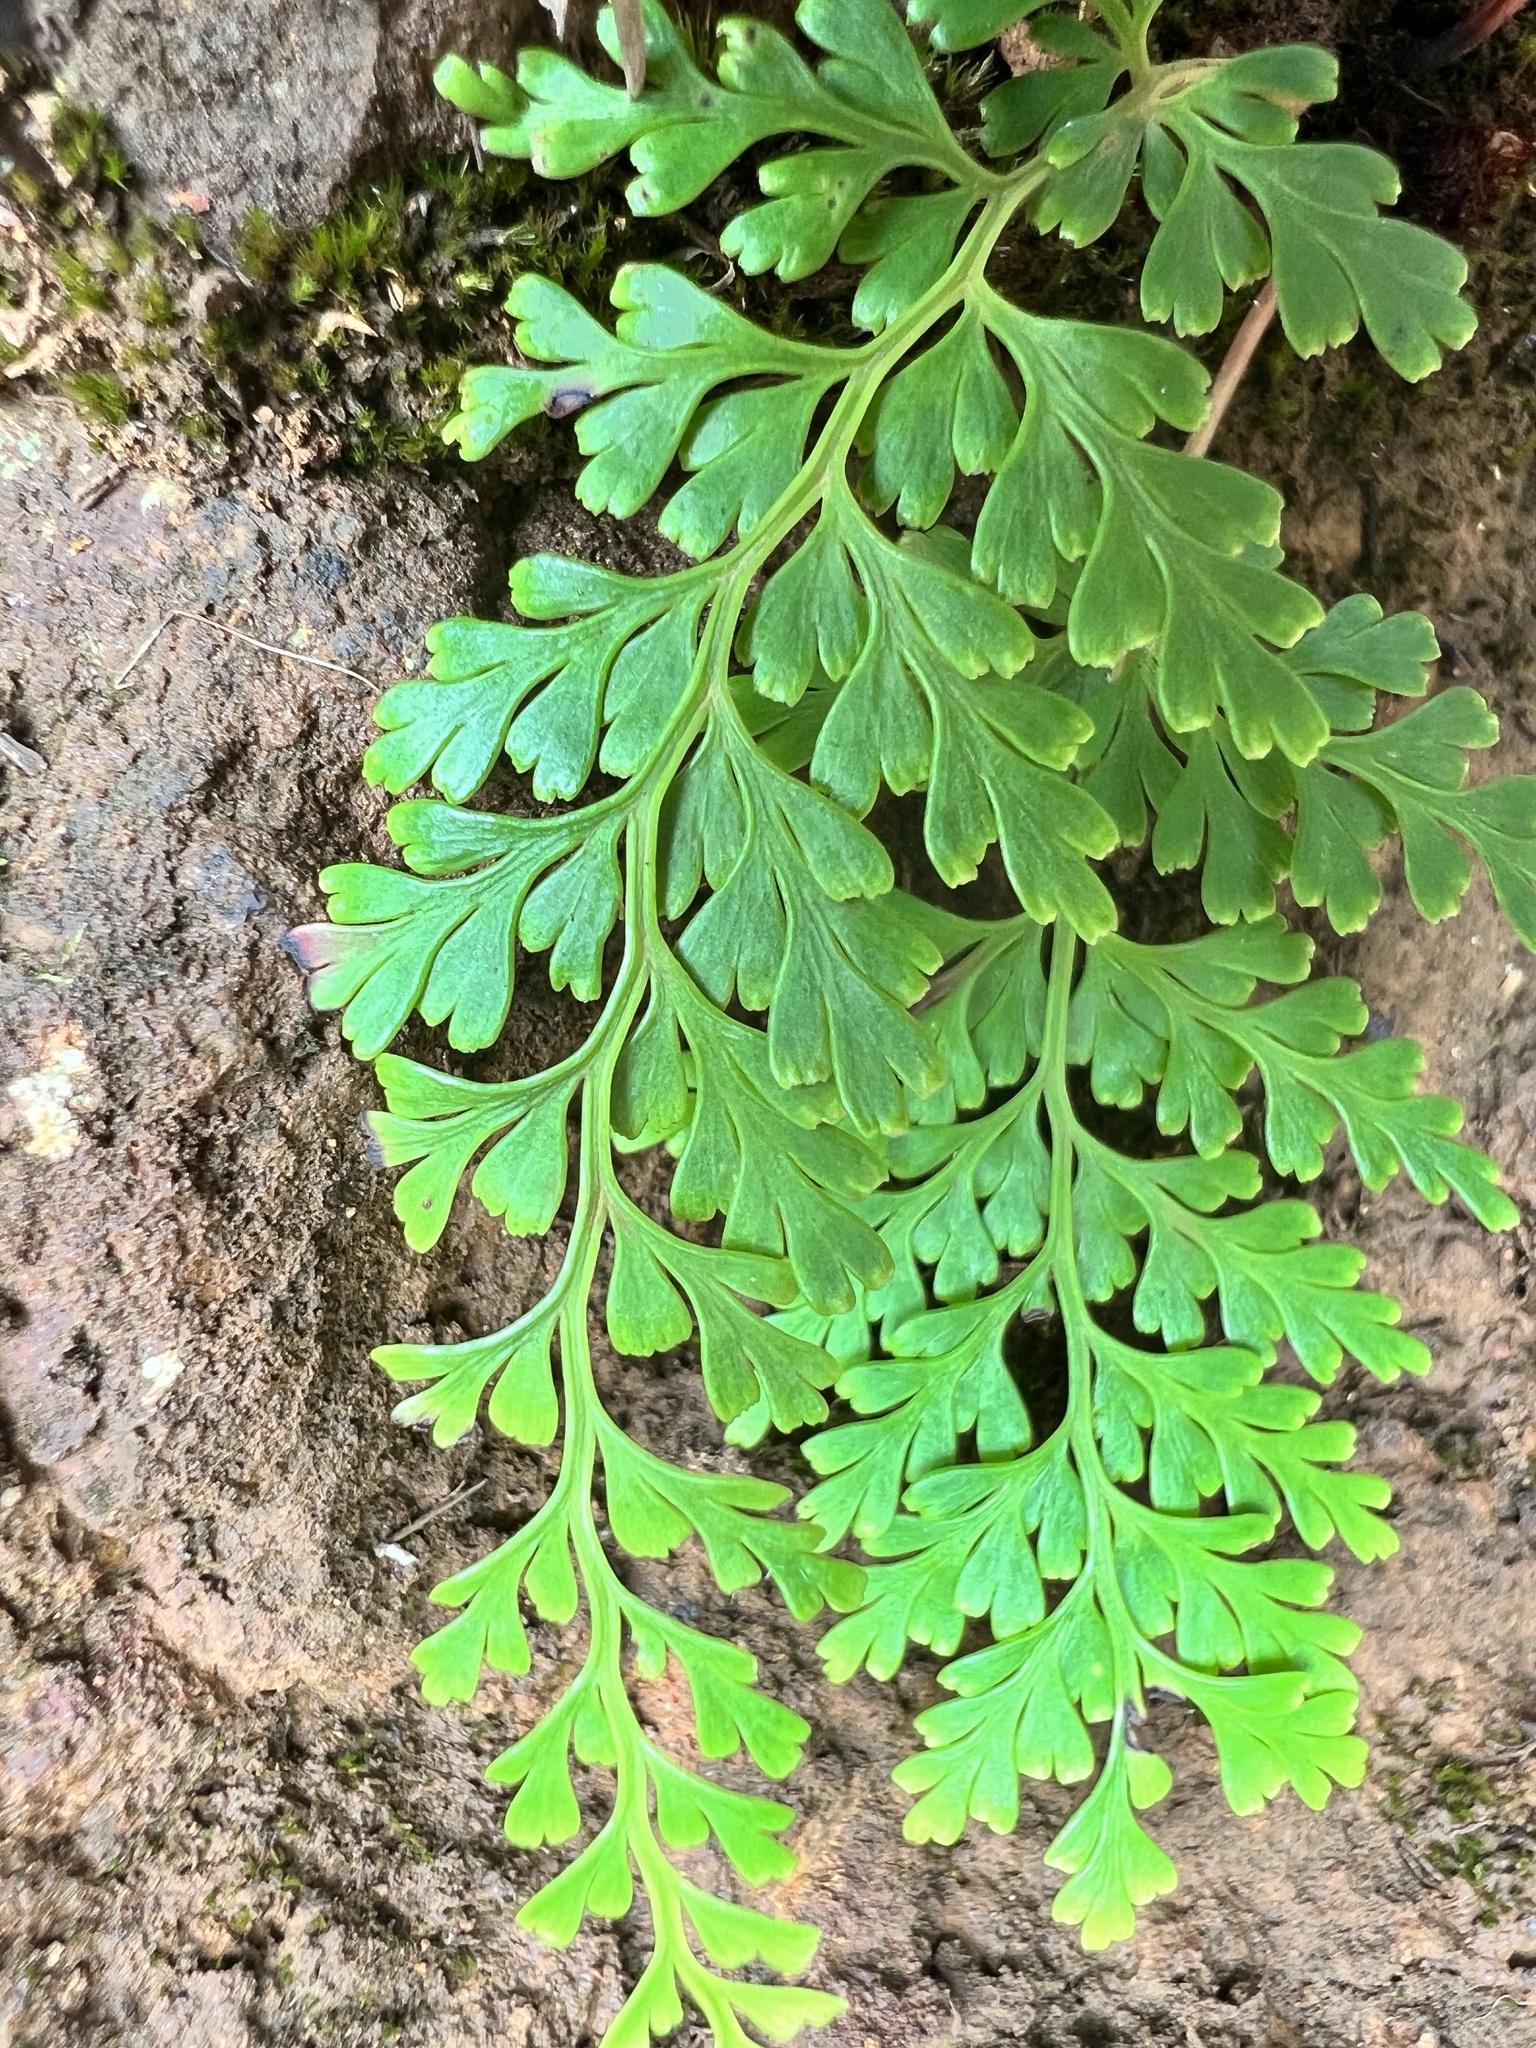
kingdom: Plantae
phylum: Tracheophyta
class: Polypodiopsida
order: Polypodiales
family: Lindsaeaceae
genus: Odontosoria
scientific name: Odontosoria chinensis
